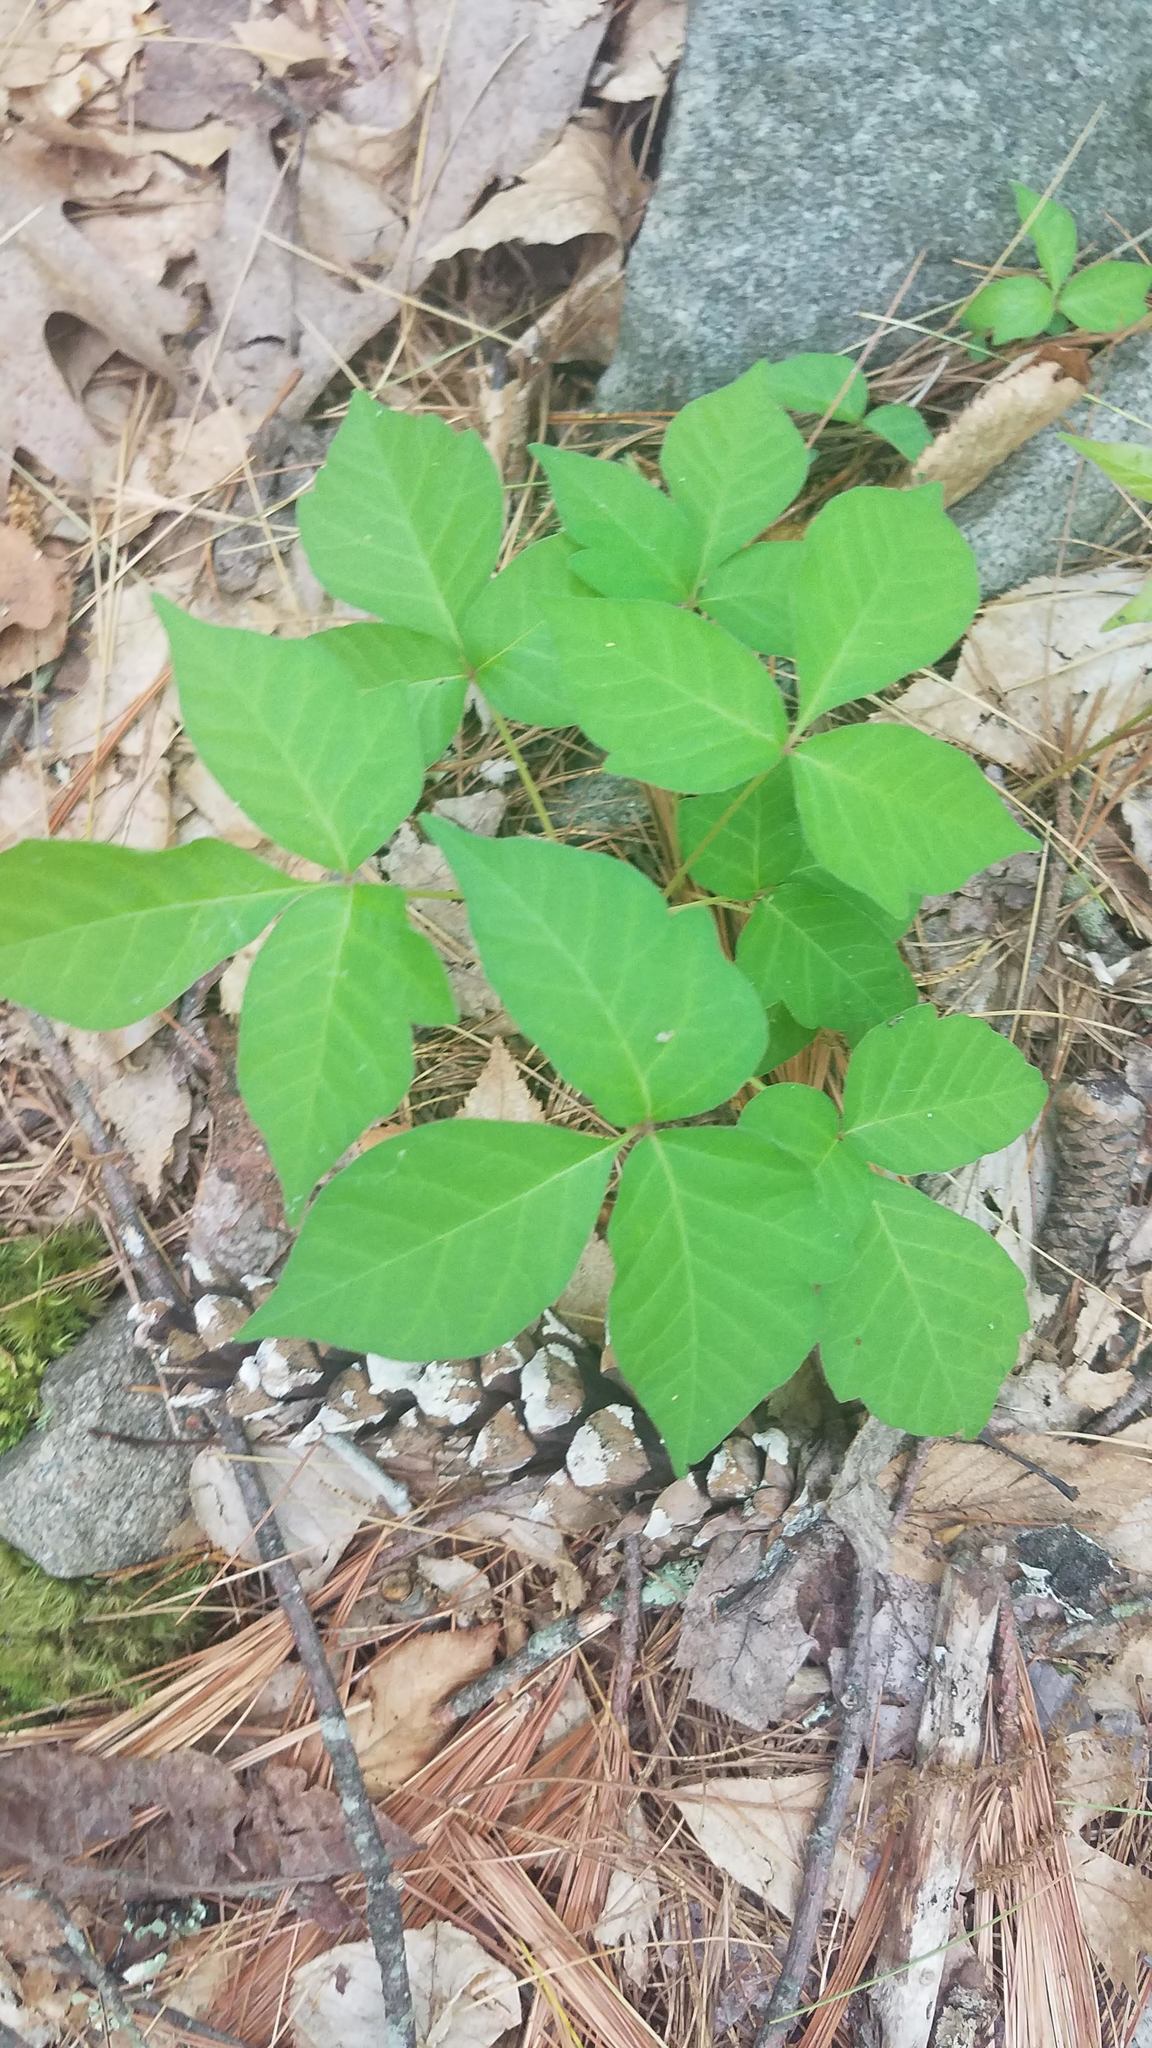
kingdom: Plantae
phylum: Tracheophyta
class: Magnoliopsida
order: Sapindales
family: Anacardiaceae
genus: Toxicodendron
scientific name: Toxicodendron radicans
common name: Poison ivy
